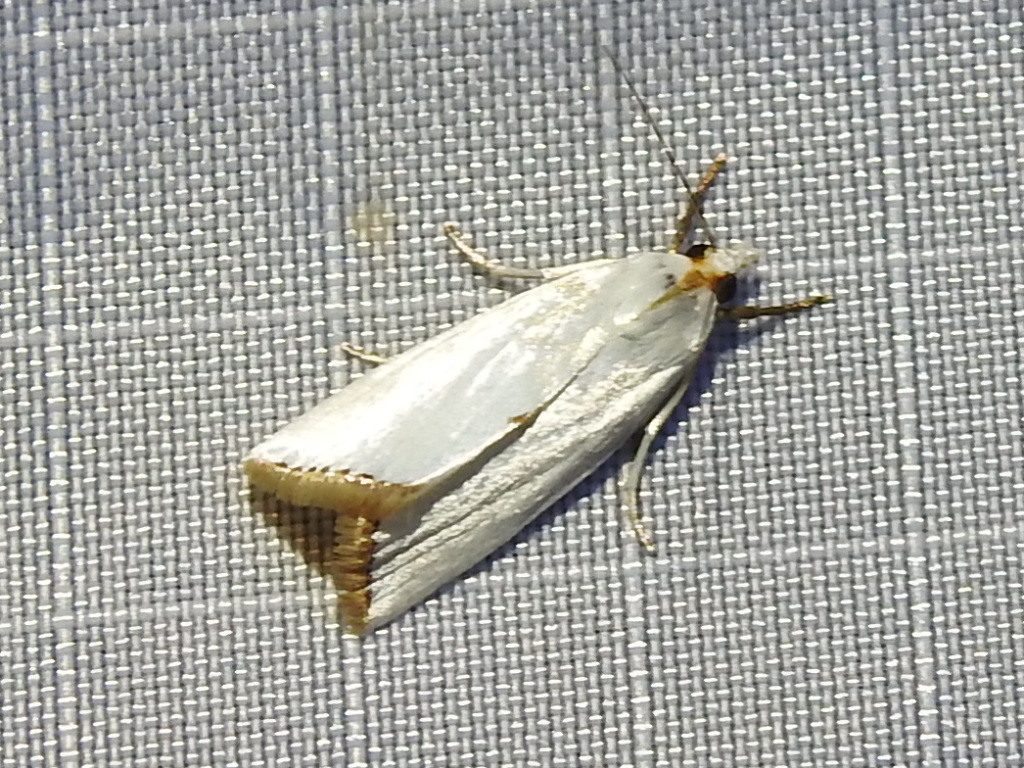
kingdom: Animalia
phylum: Arthropoda
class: Insecta
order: Lepidoptera
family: Crambidae
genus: Argyria
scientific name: Argyria nivalis
